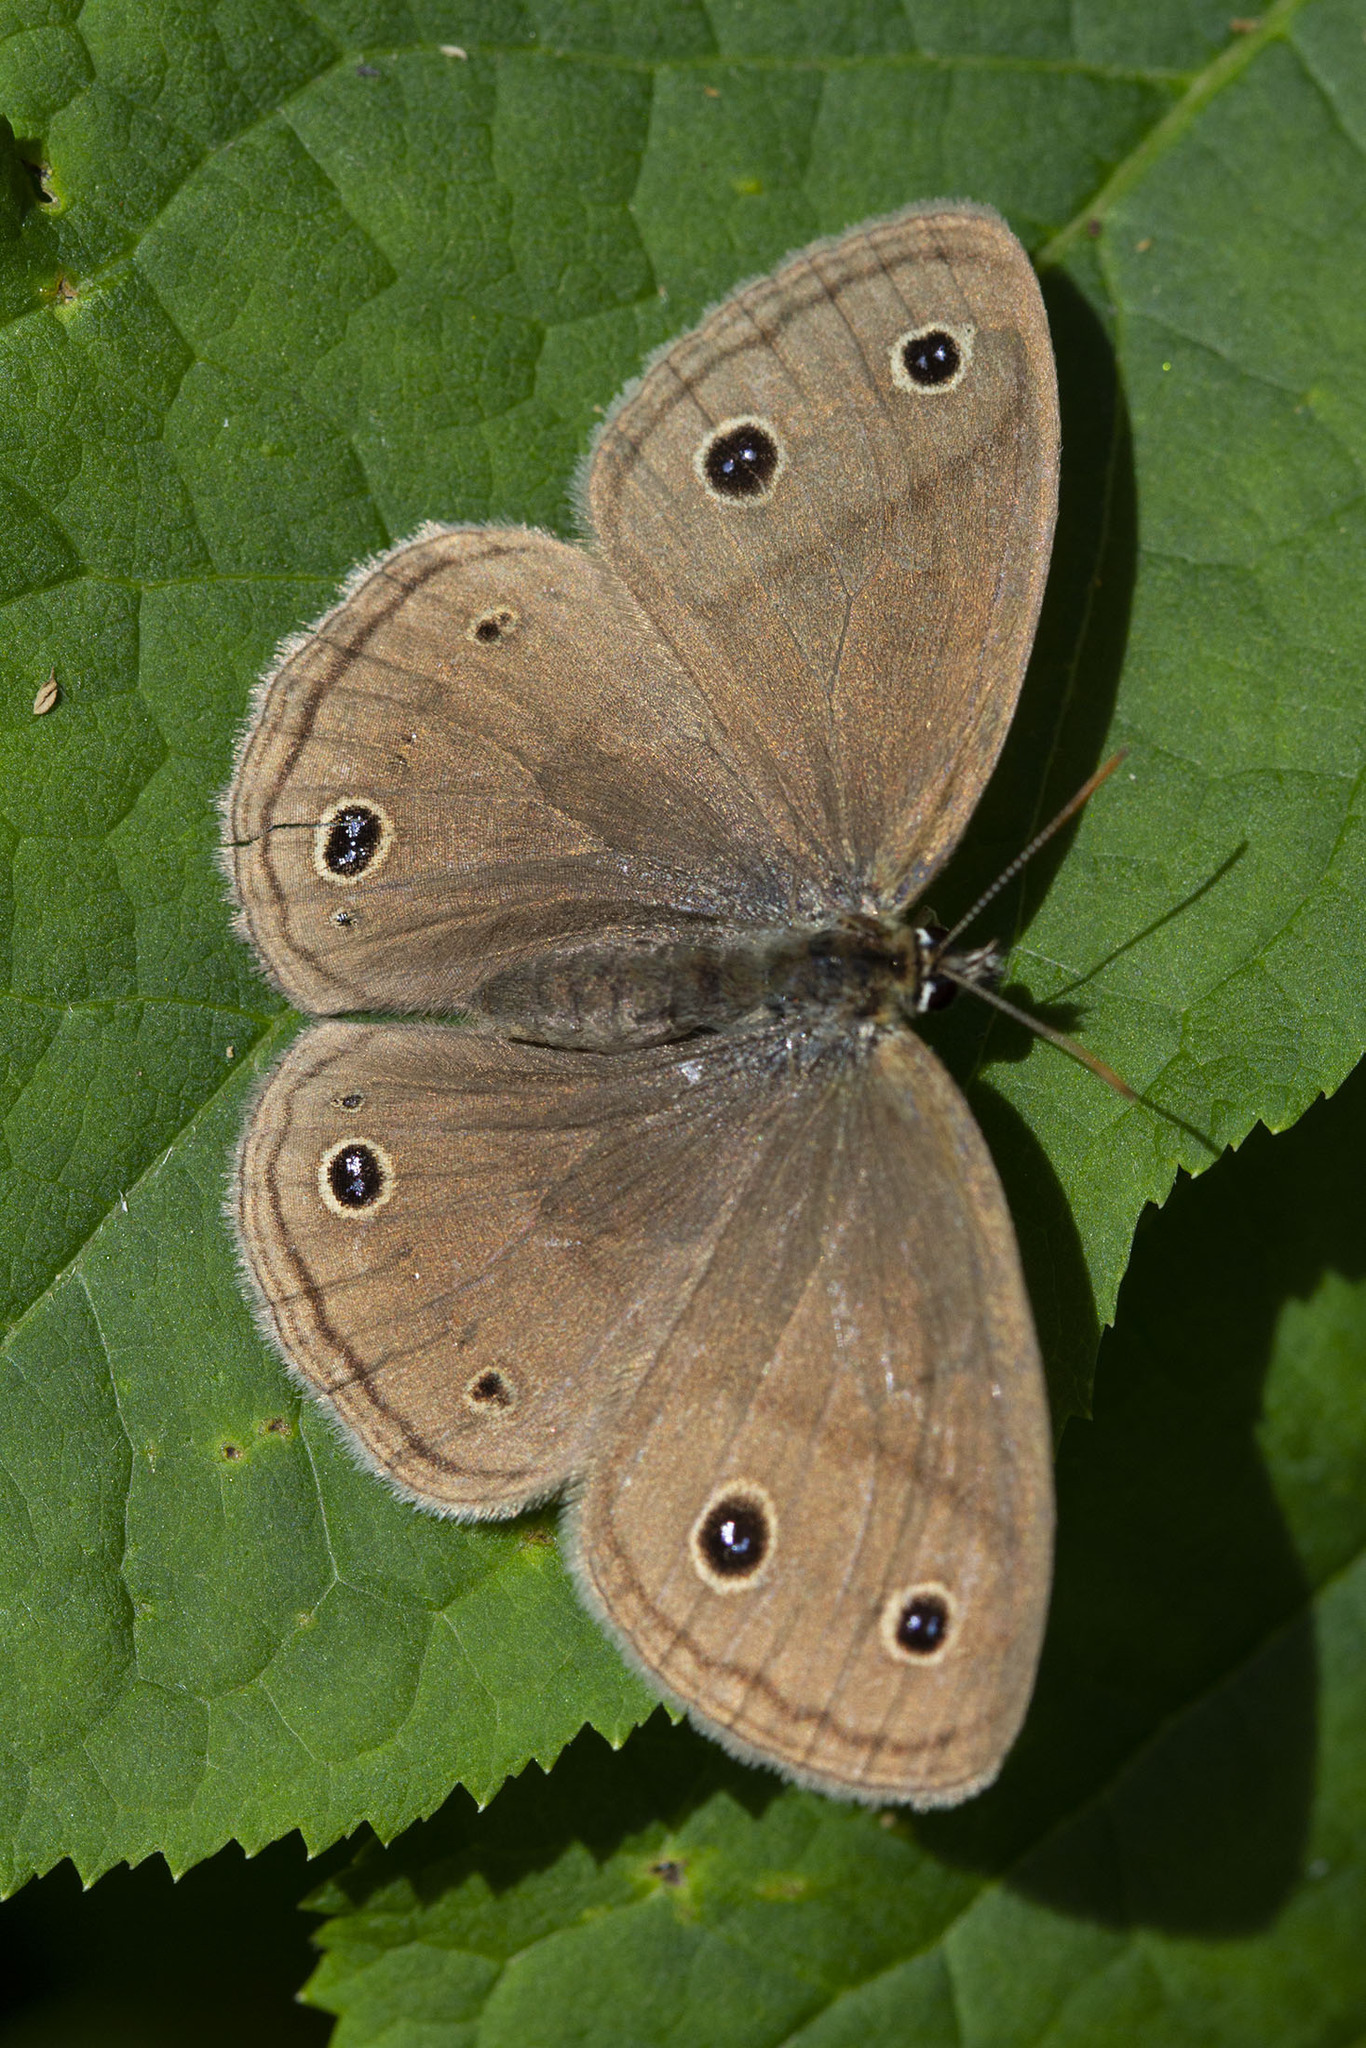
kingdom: Animalia
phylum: Arthropoda
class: Insecta
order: Lepidoptera
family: Nymphalidae
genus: Euptychia
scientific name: Euptychia cymela
